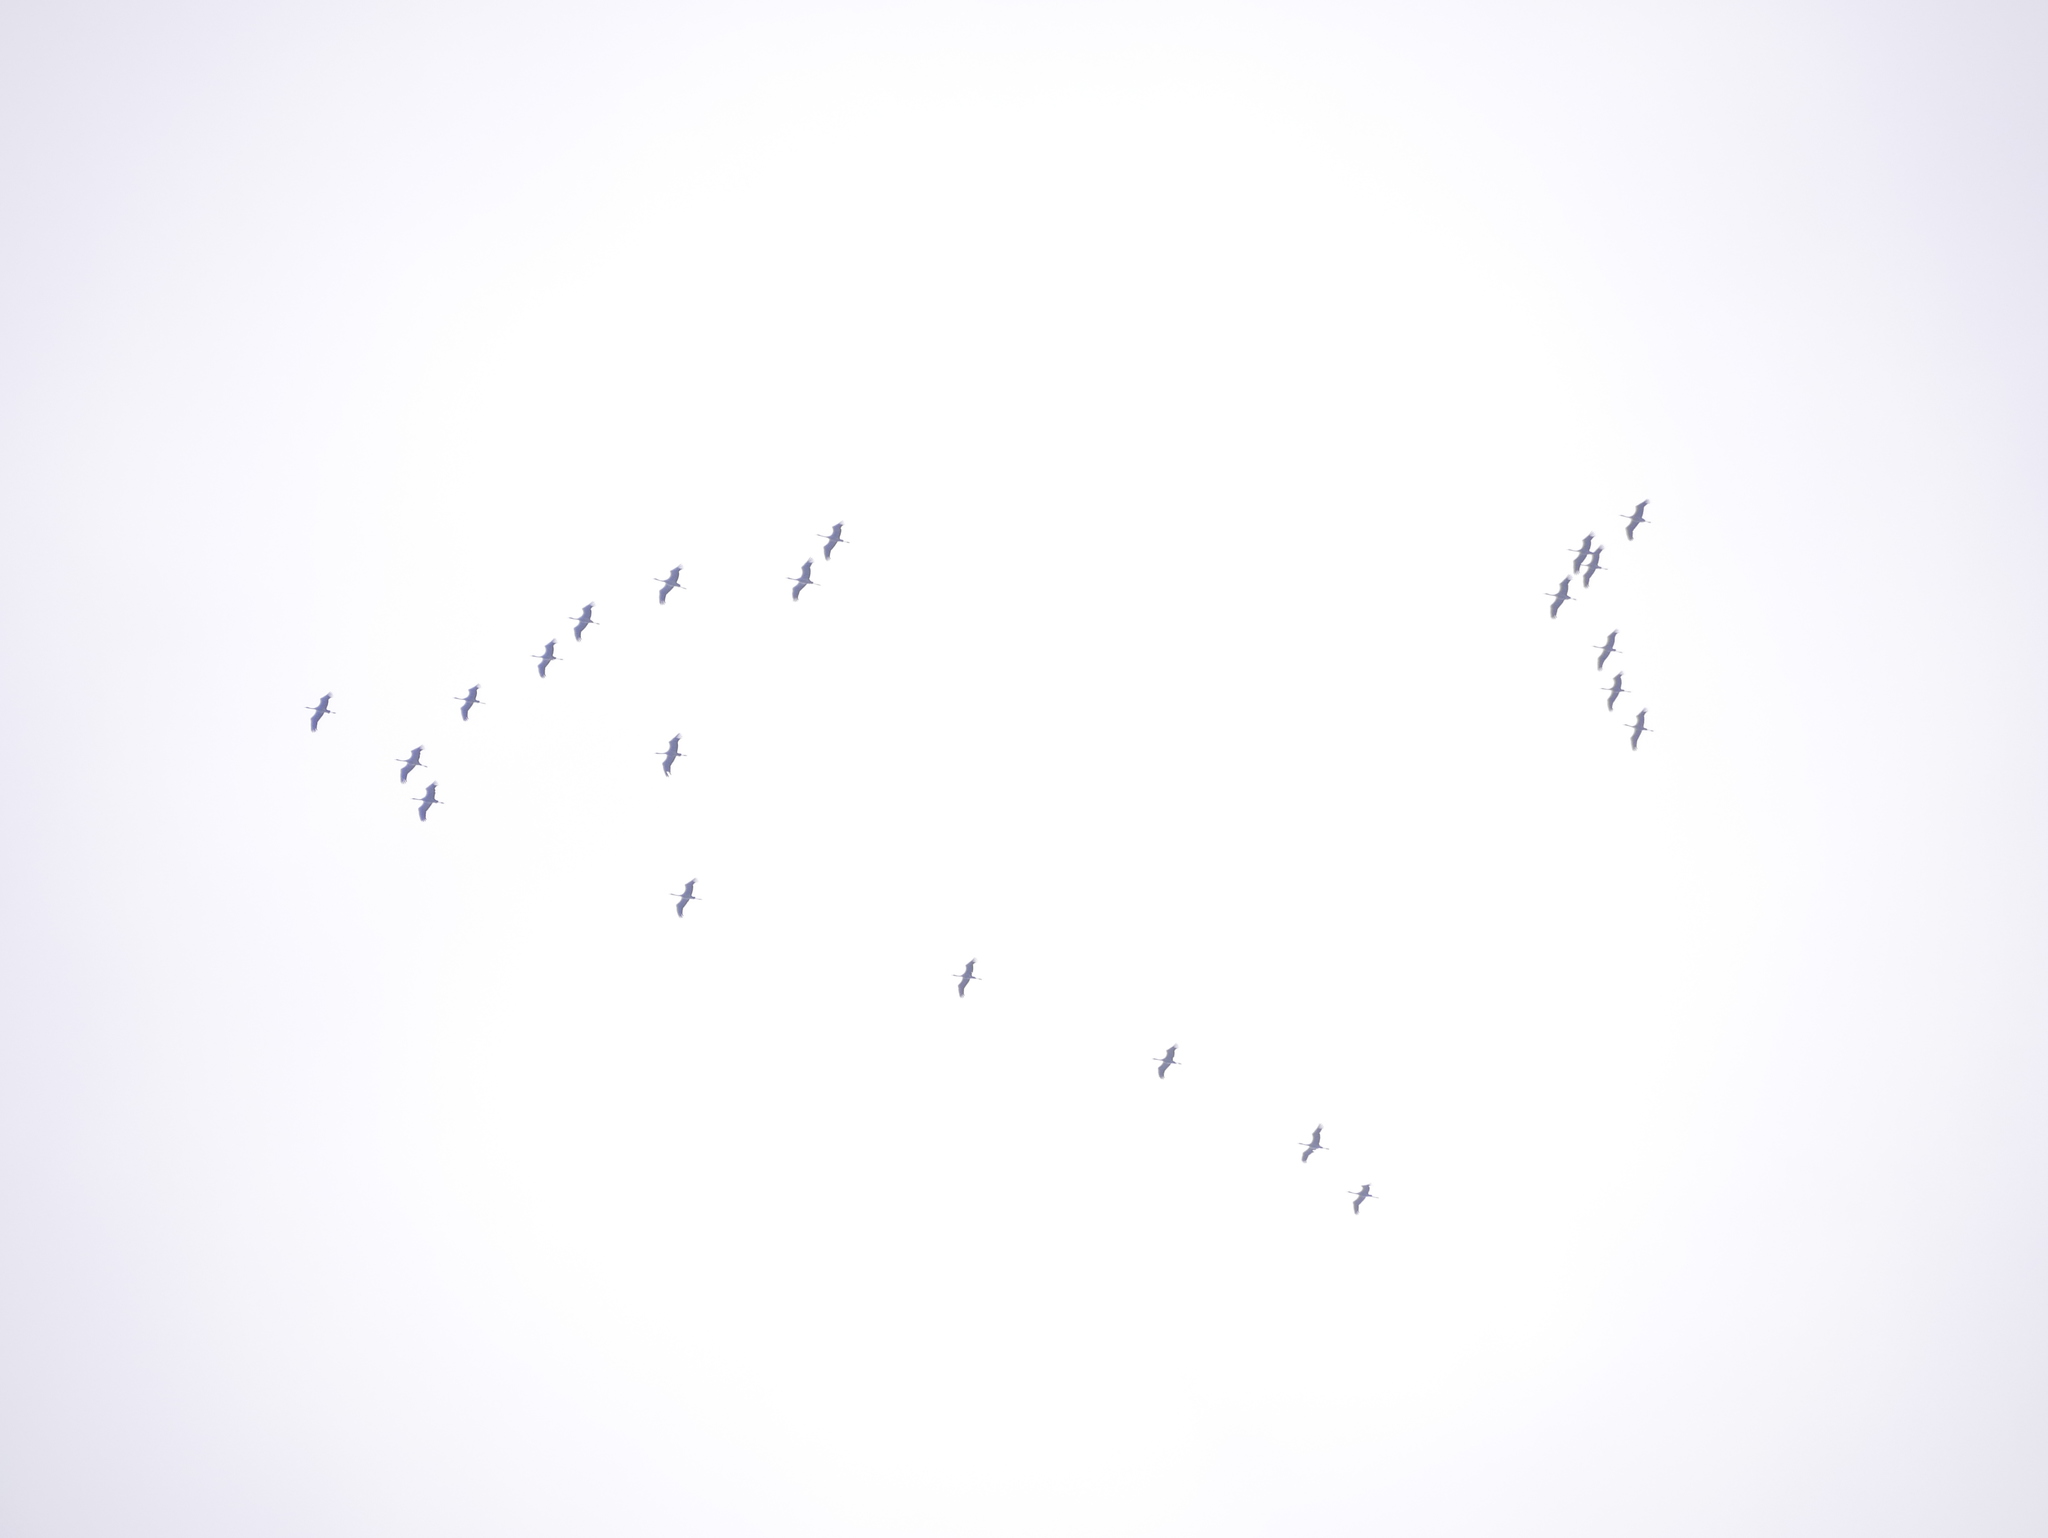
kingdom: Animalia
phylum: Chordata
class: Aves
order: Gruiformes
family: Gruidae
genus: Grus
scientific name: Grus grus
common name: Common crane
